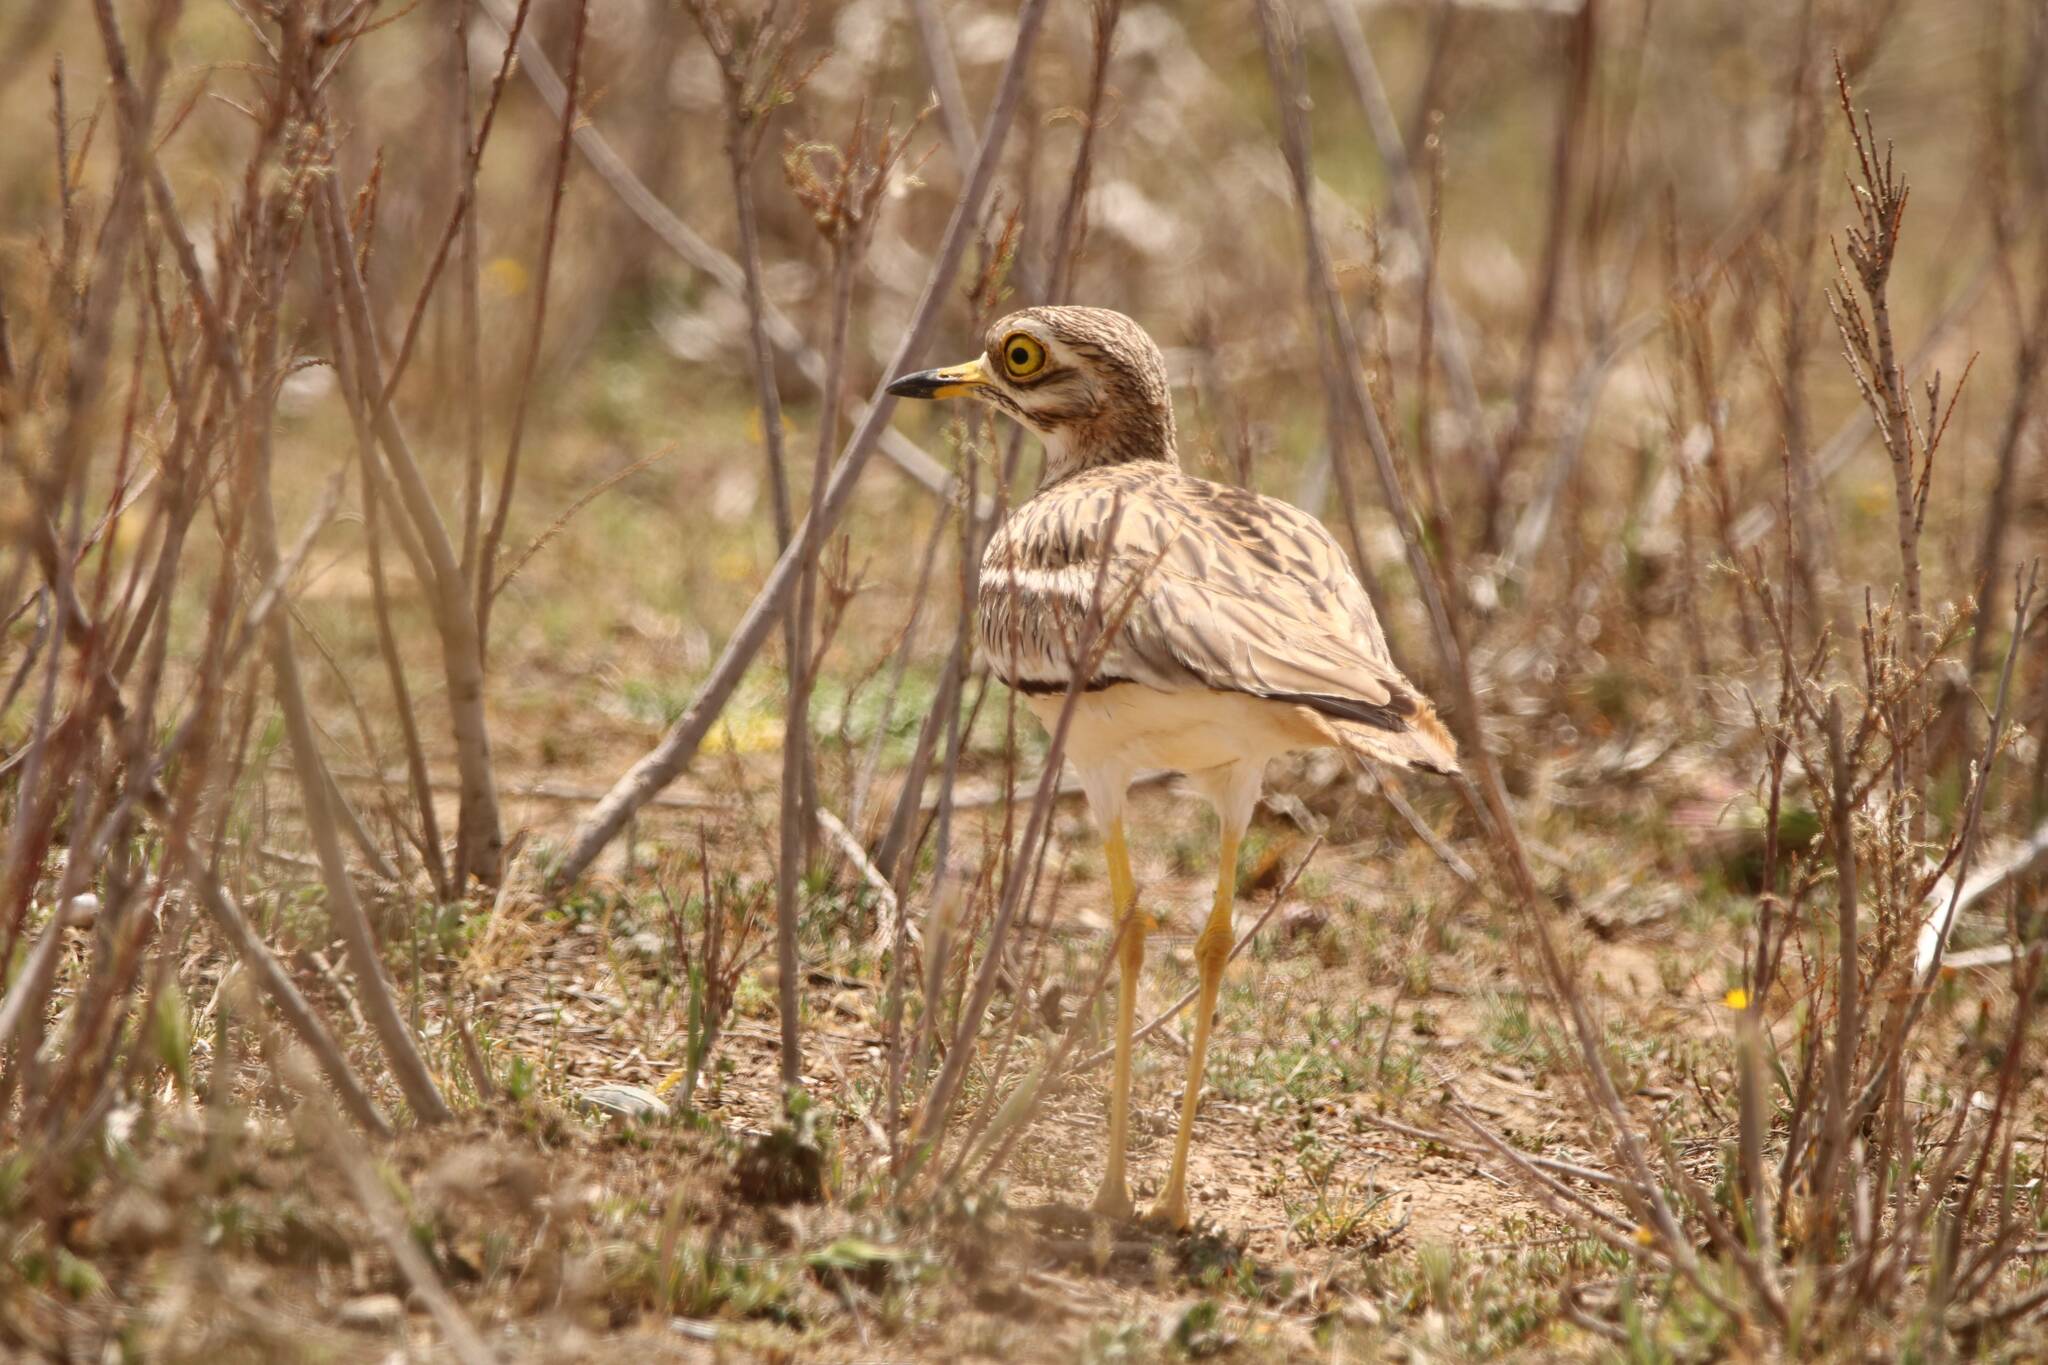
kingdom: Animalia
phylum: Chordata
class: Aves
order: Charadriiformes
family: Burhinidae
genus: Burhinus
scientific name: Burhinus oedicnemus
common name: Eurasian stone-curlew
